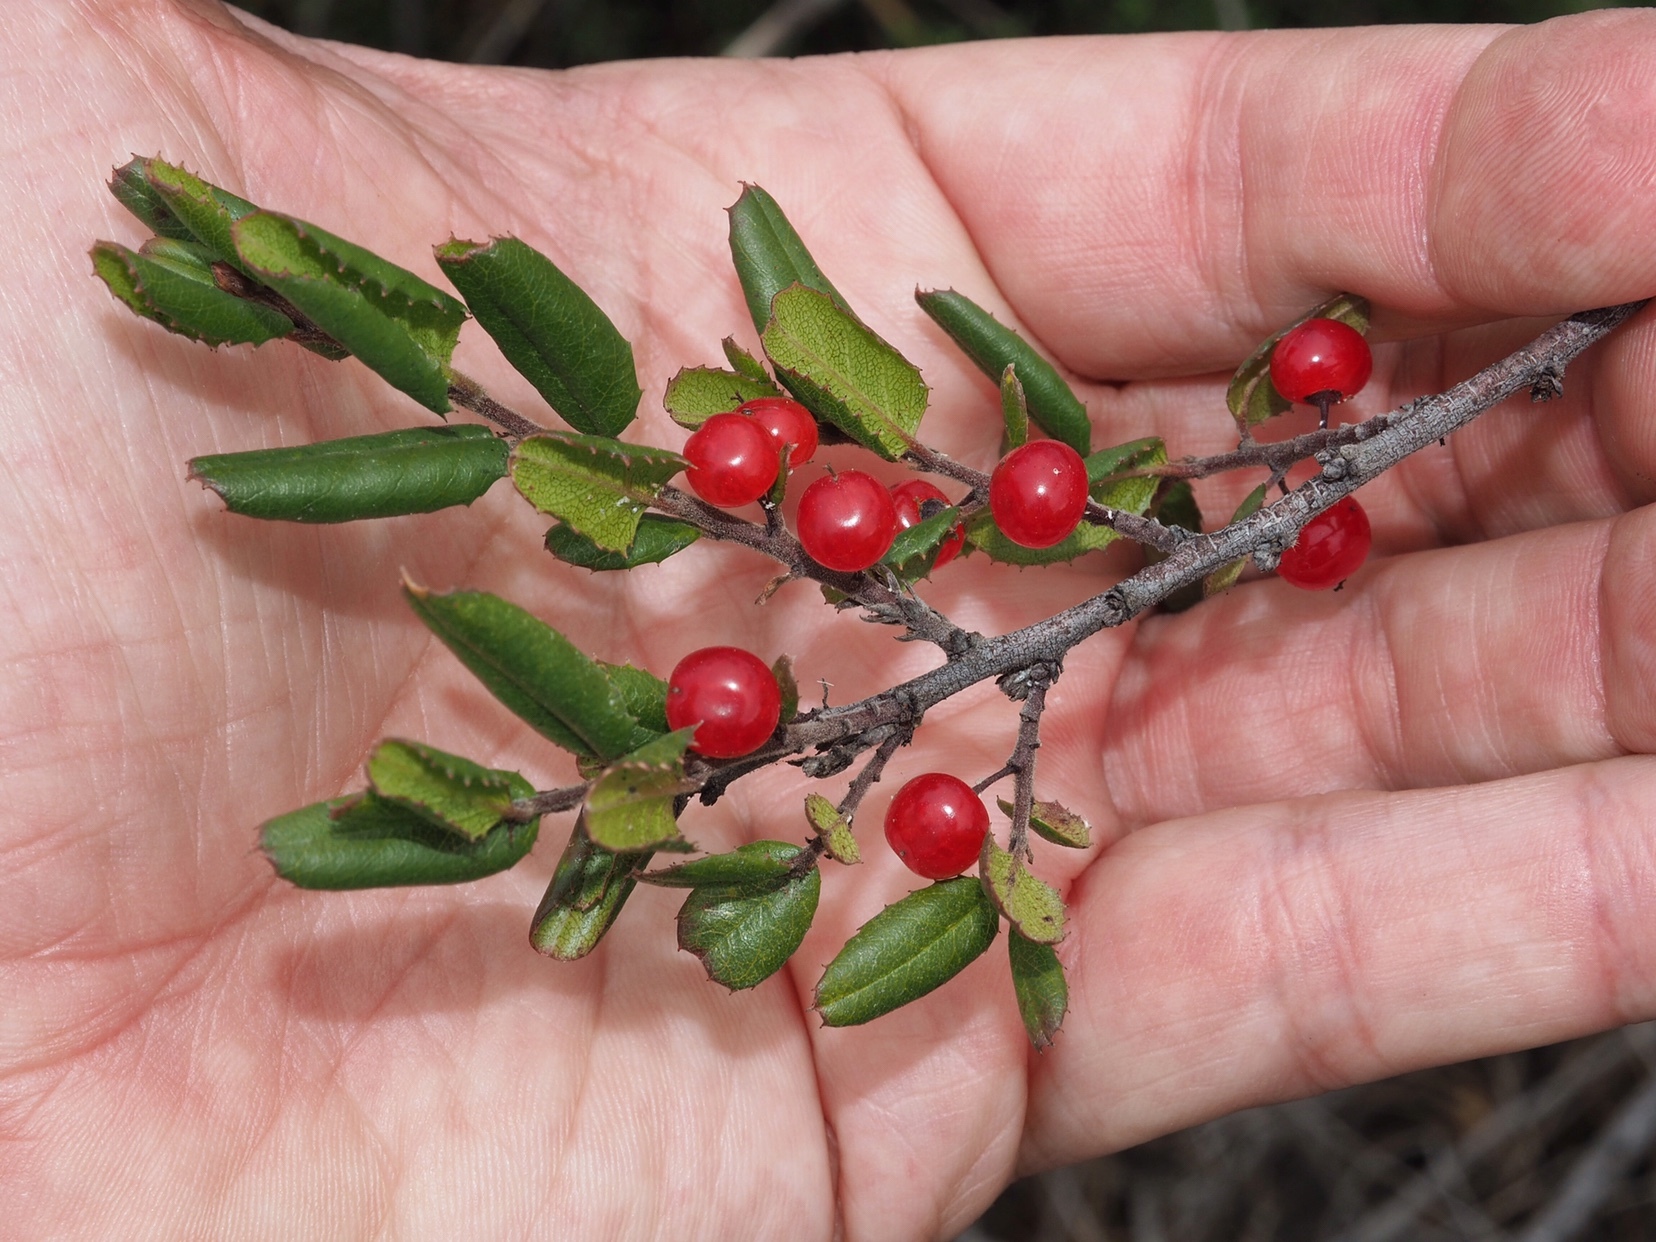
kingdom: Plantae
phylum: Tracheophyta
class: Magnoliopsida
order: Rosales
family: Rhamnaceae
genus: Endotropis
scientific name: Endotropis crocea
